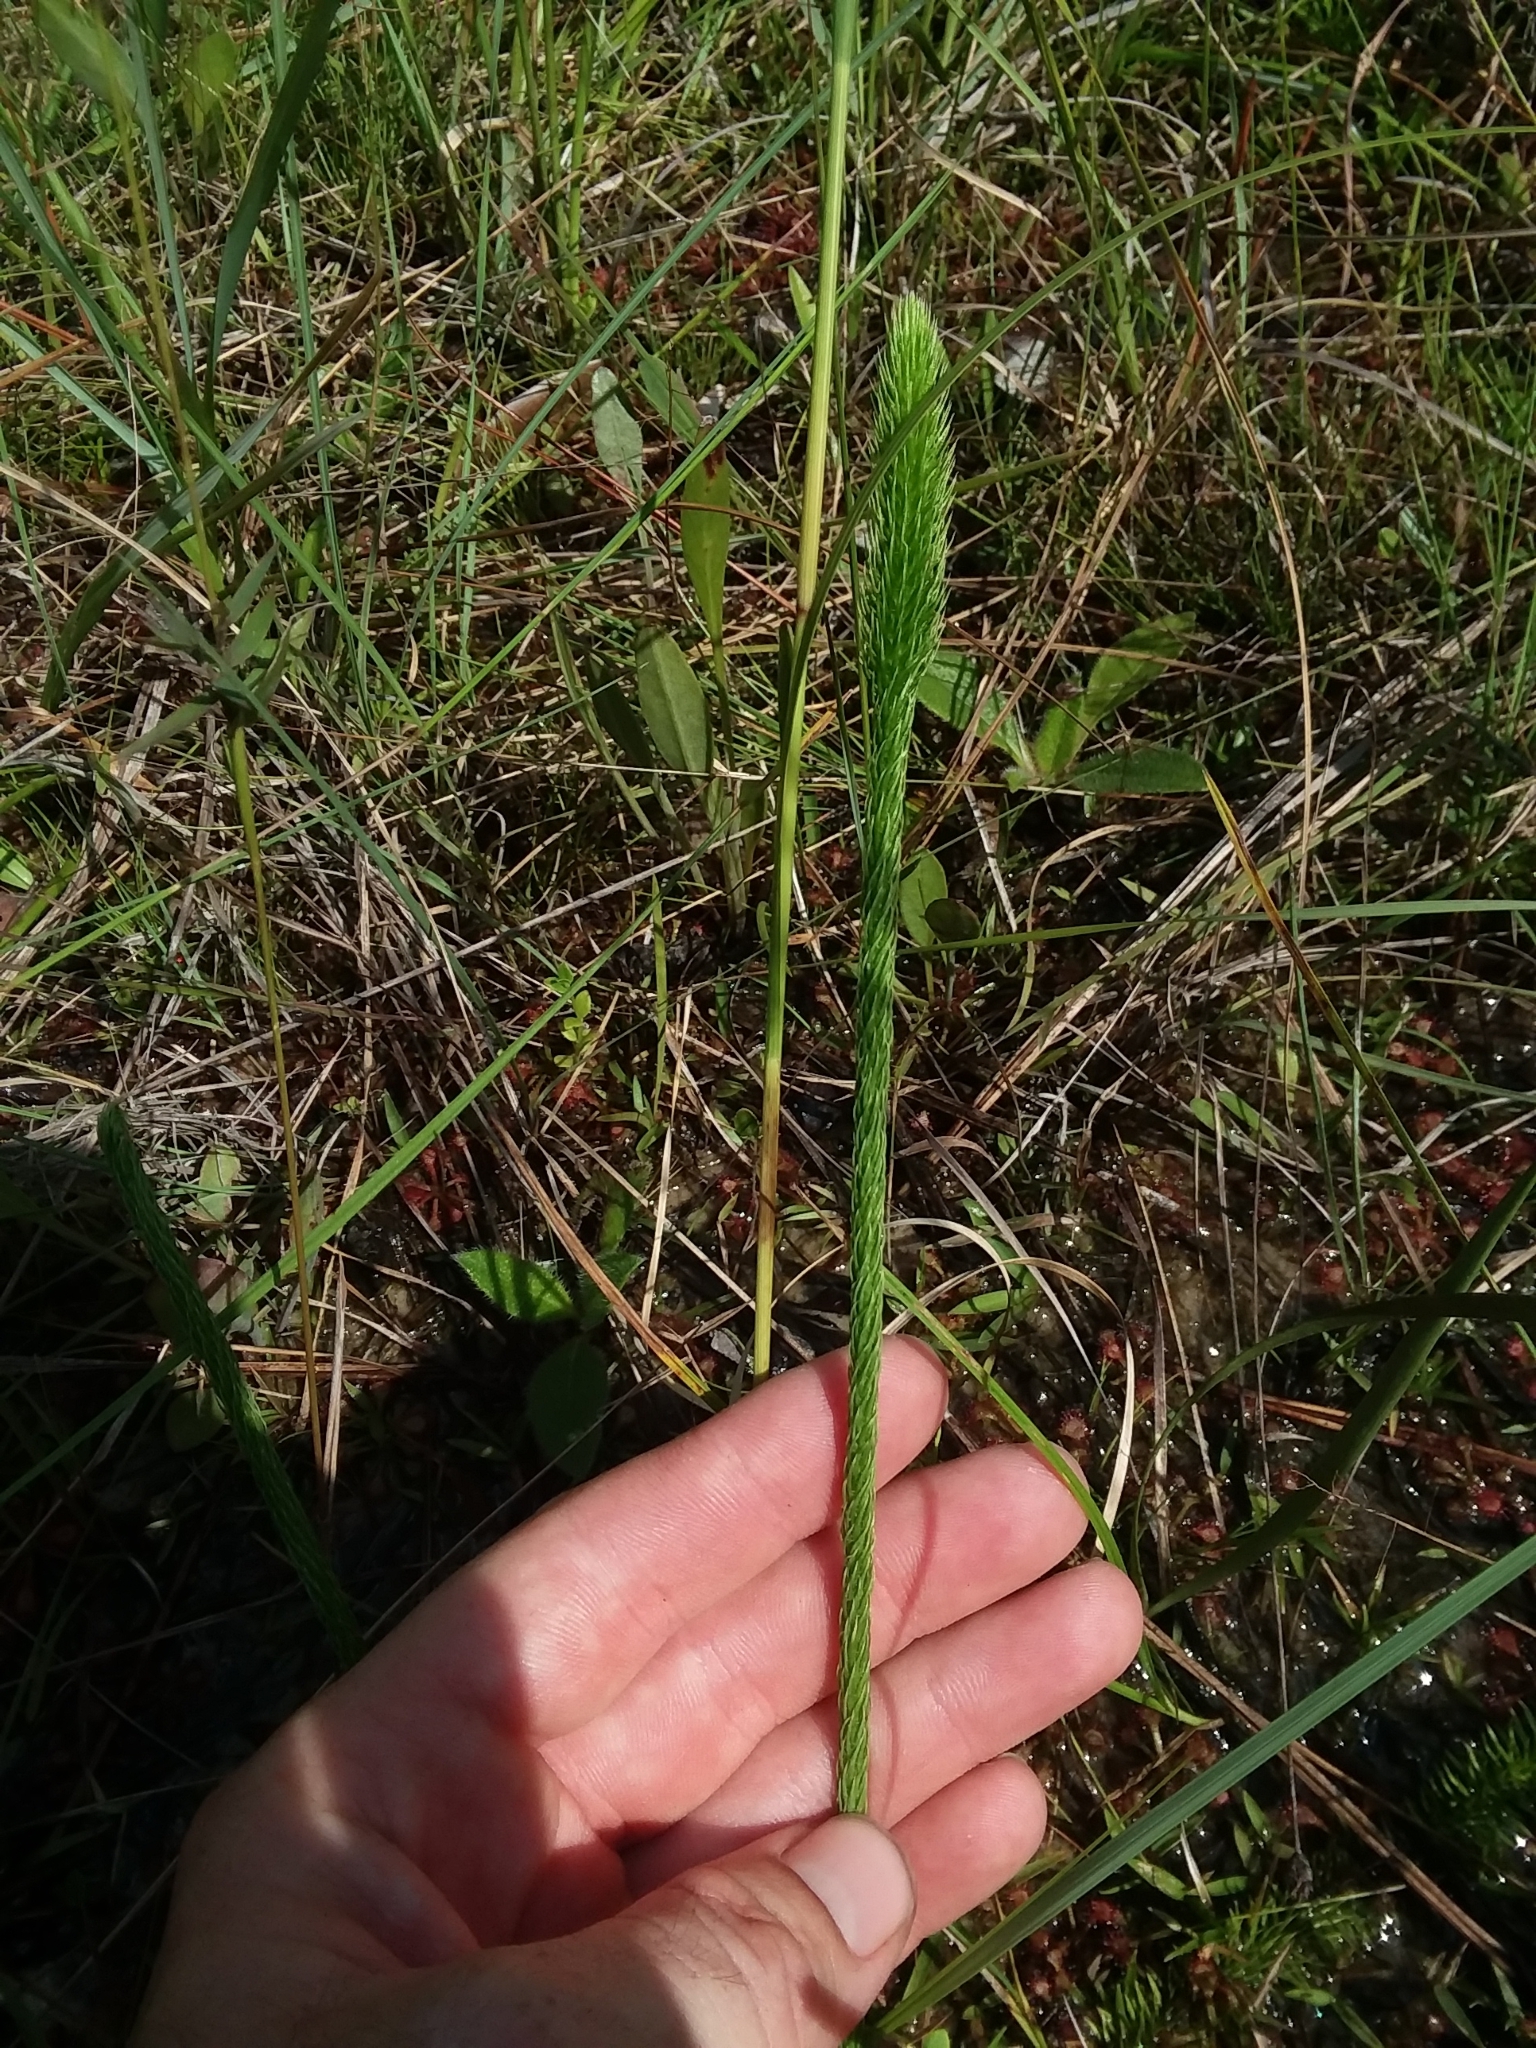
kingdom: Plantae
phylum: Tracheophyta
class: Lycopodiopsida
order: Lycopodiales
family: Lycopodiaceae
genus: Lycopodiella
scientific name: Lycopodiella appressa
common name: Appressed bog clubmoss
